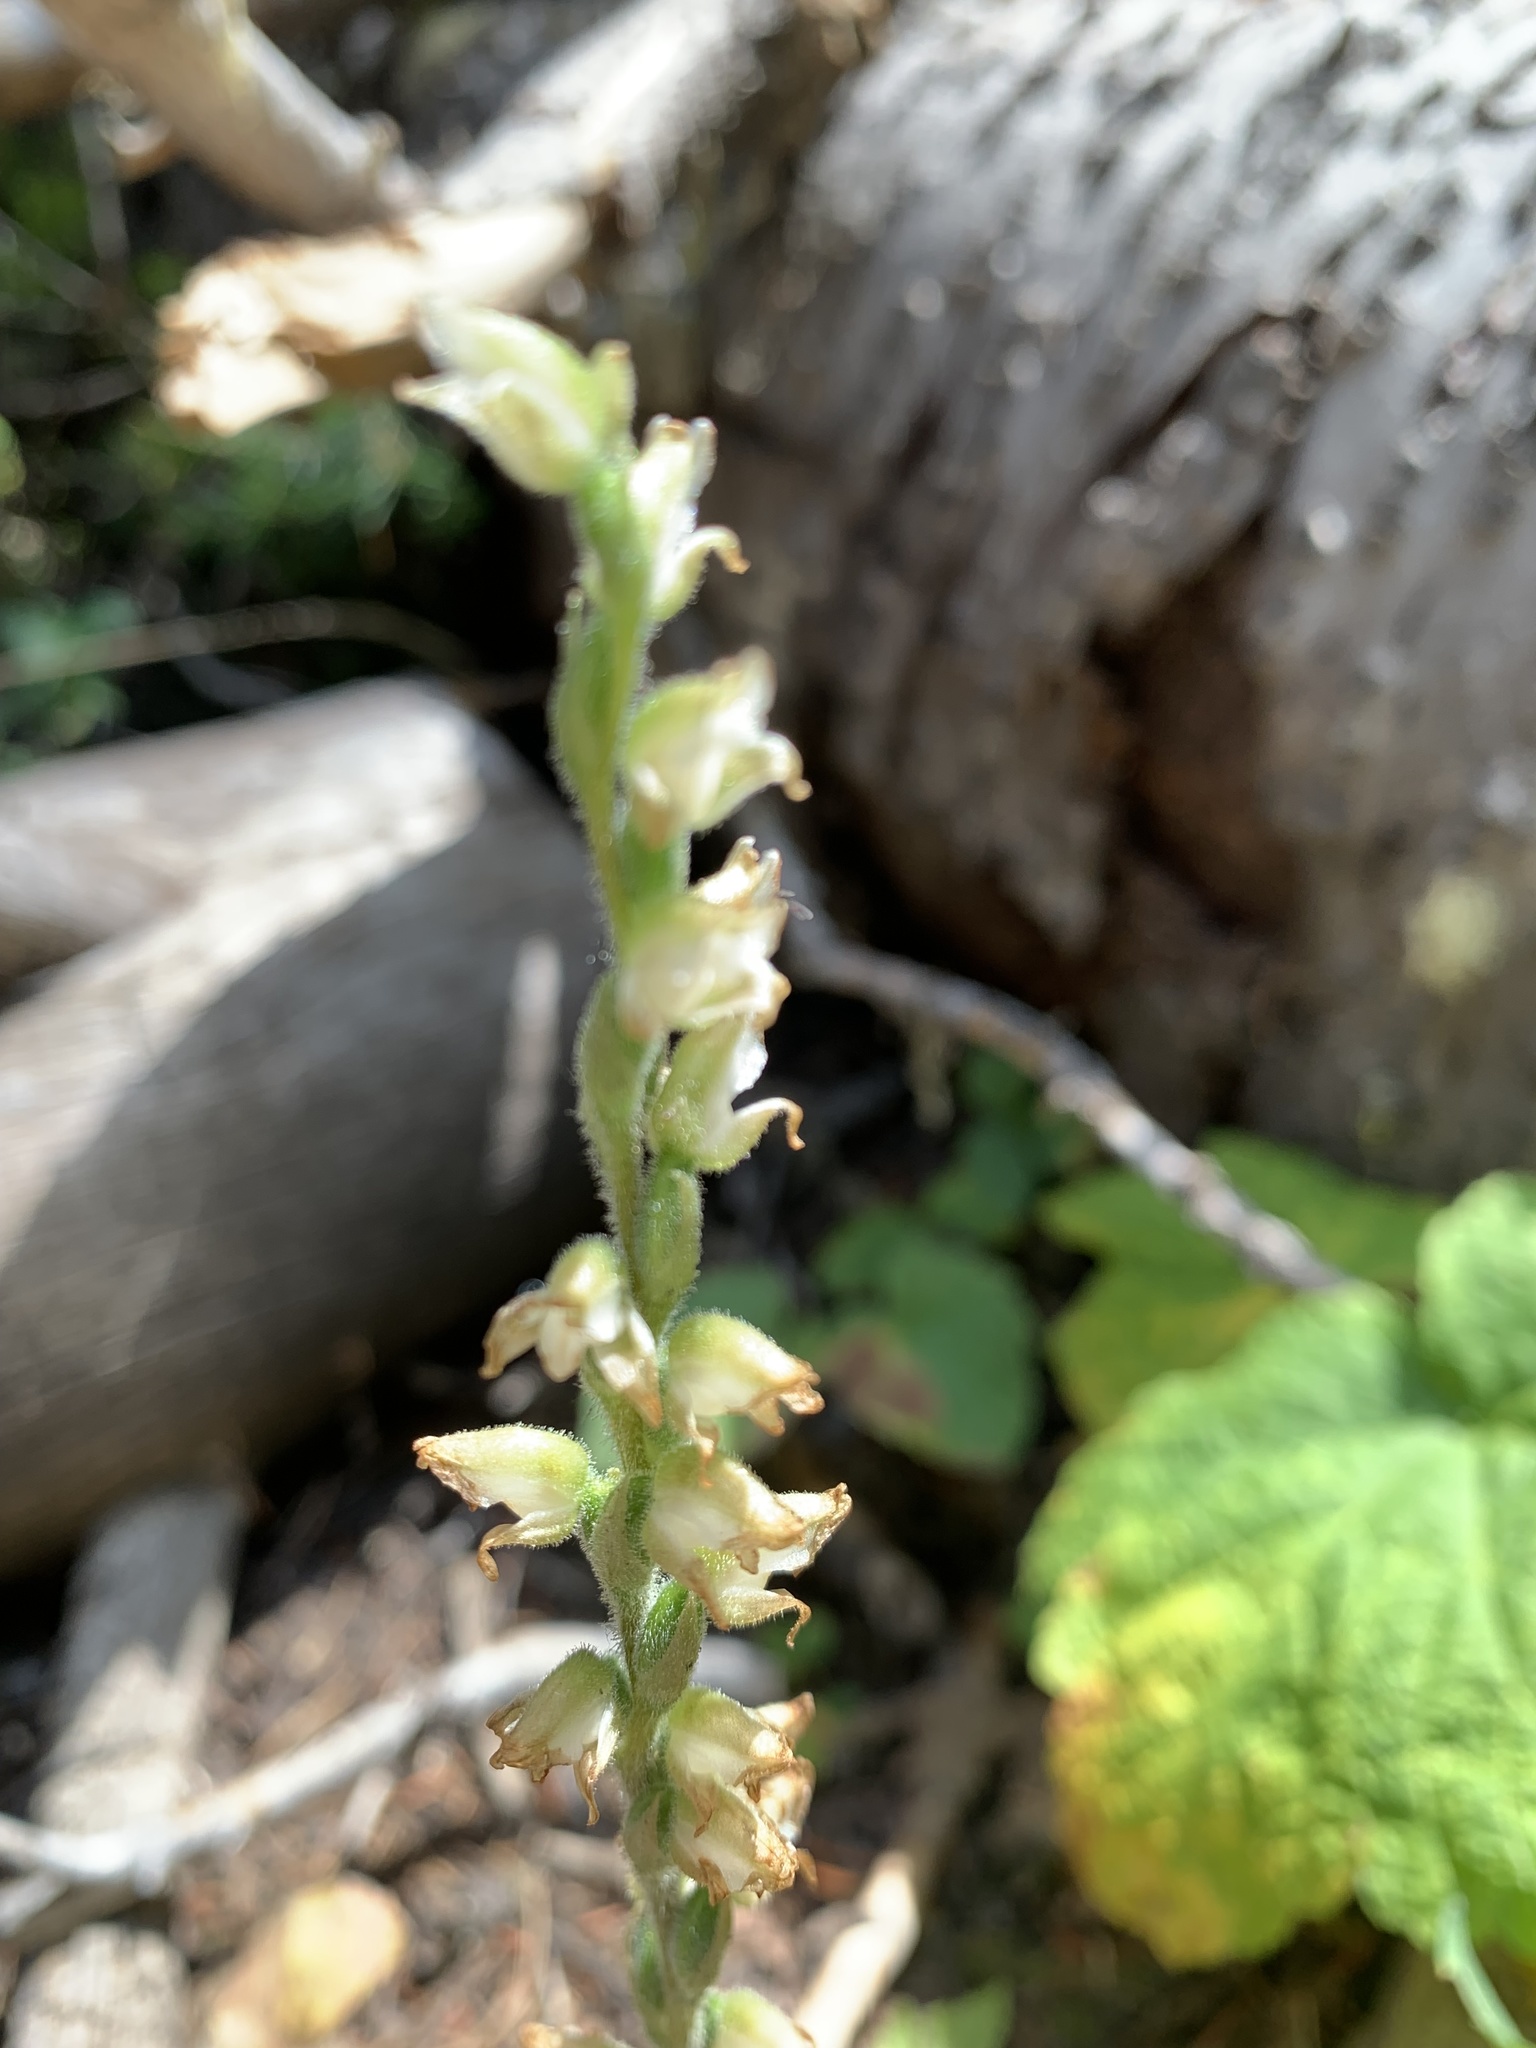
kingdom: Plantae
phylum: Tracheophyta
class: Liliopsida
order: Asparagales
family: Orchidaceae
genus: Goodyera
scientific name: Goodyera oblongifolia
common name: Giant rattlesnake-plantain
